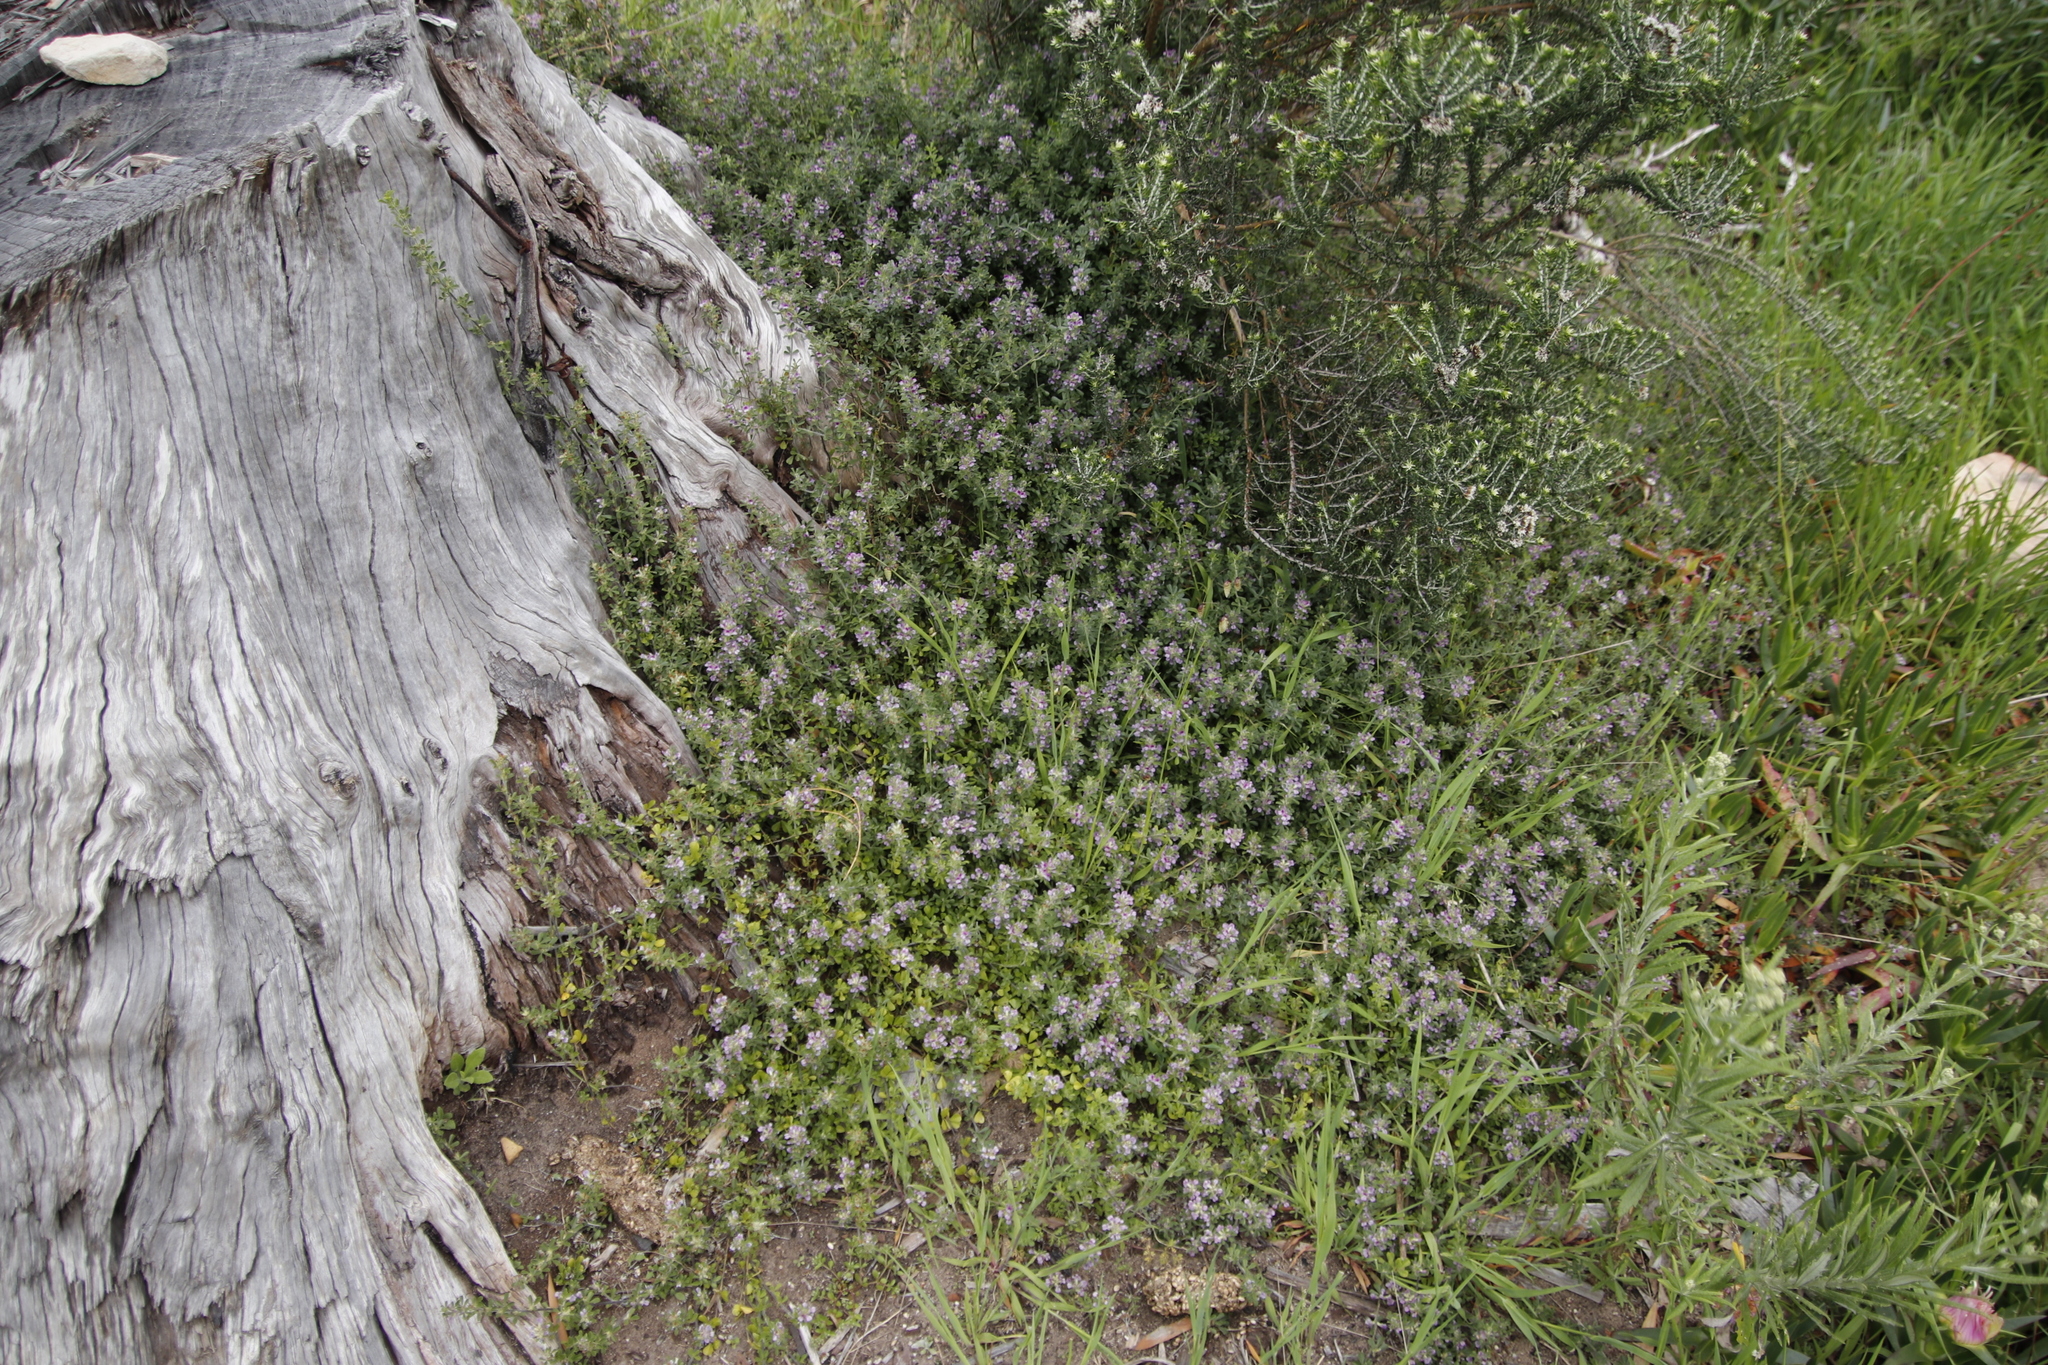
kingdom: Plantae
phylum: Tracheophyta
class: Magnoliopsida
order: Fabales
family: Fabaceae
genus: Psoralea
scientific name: Psoralea
